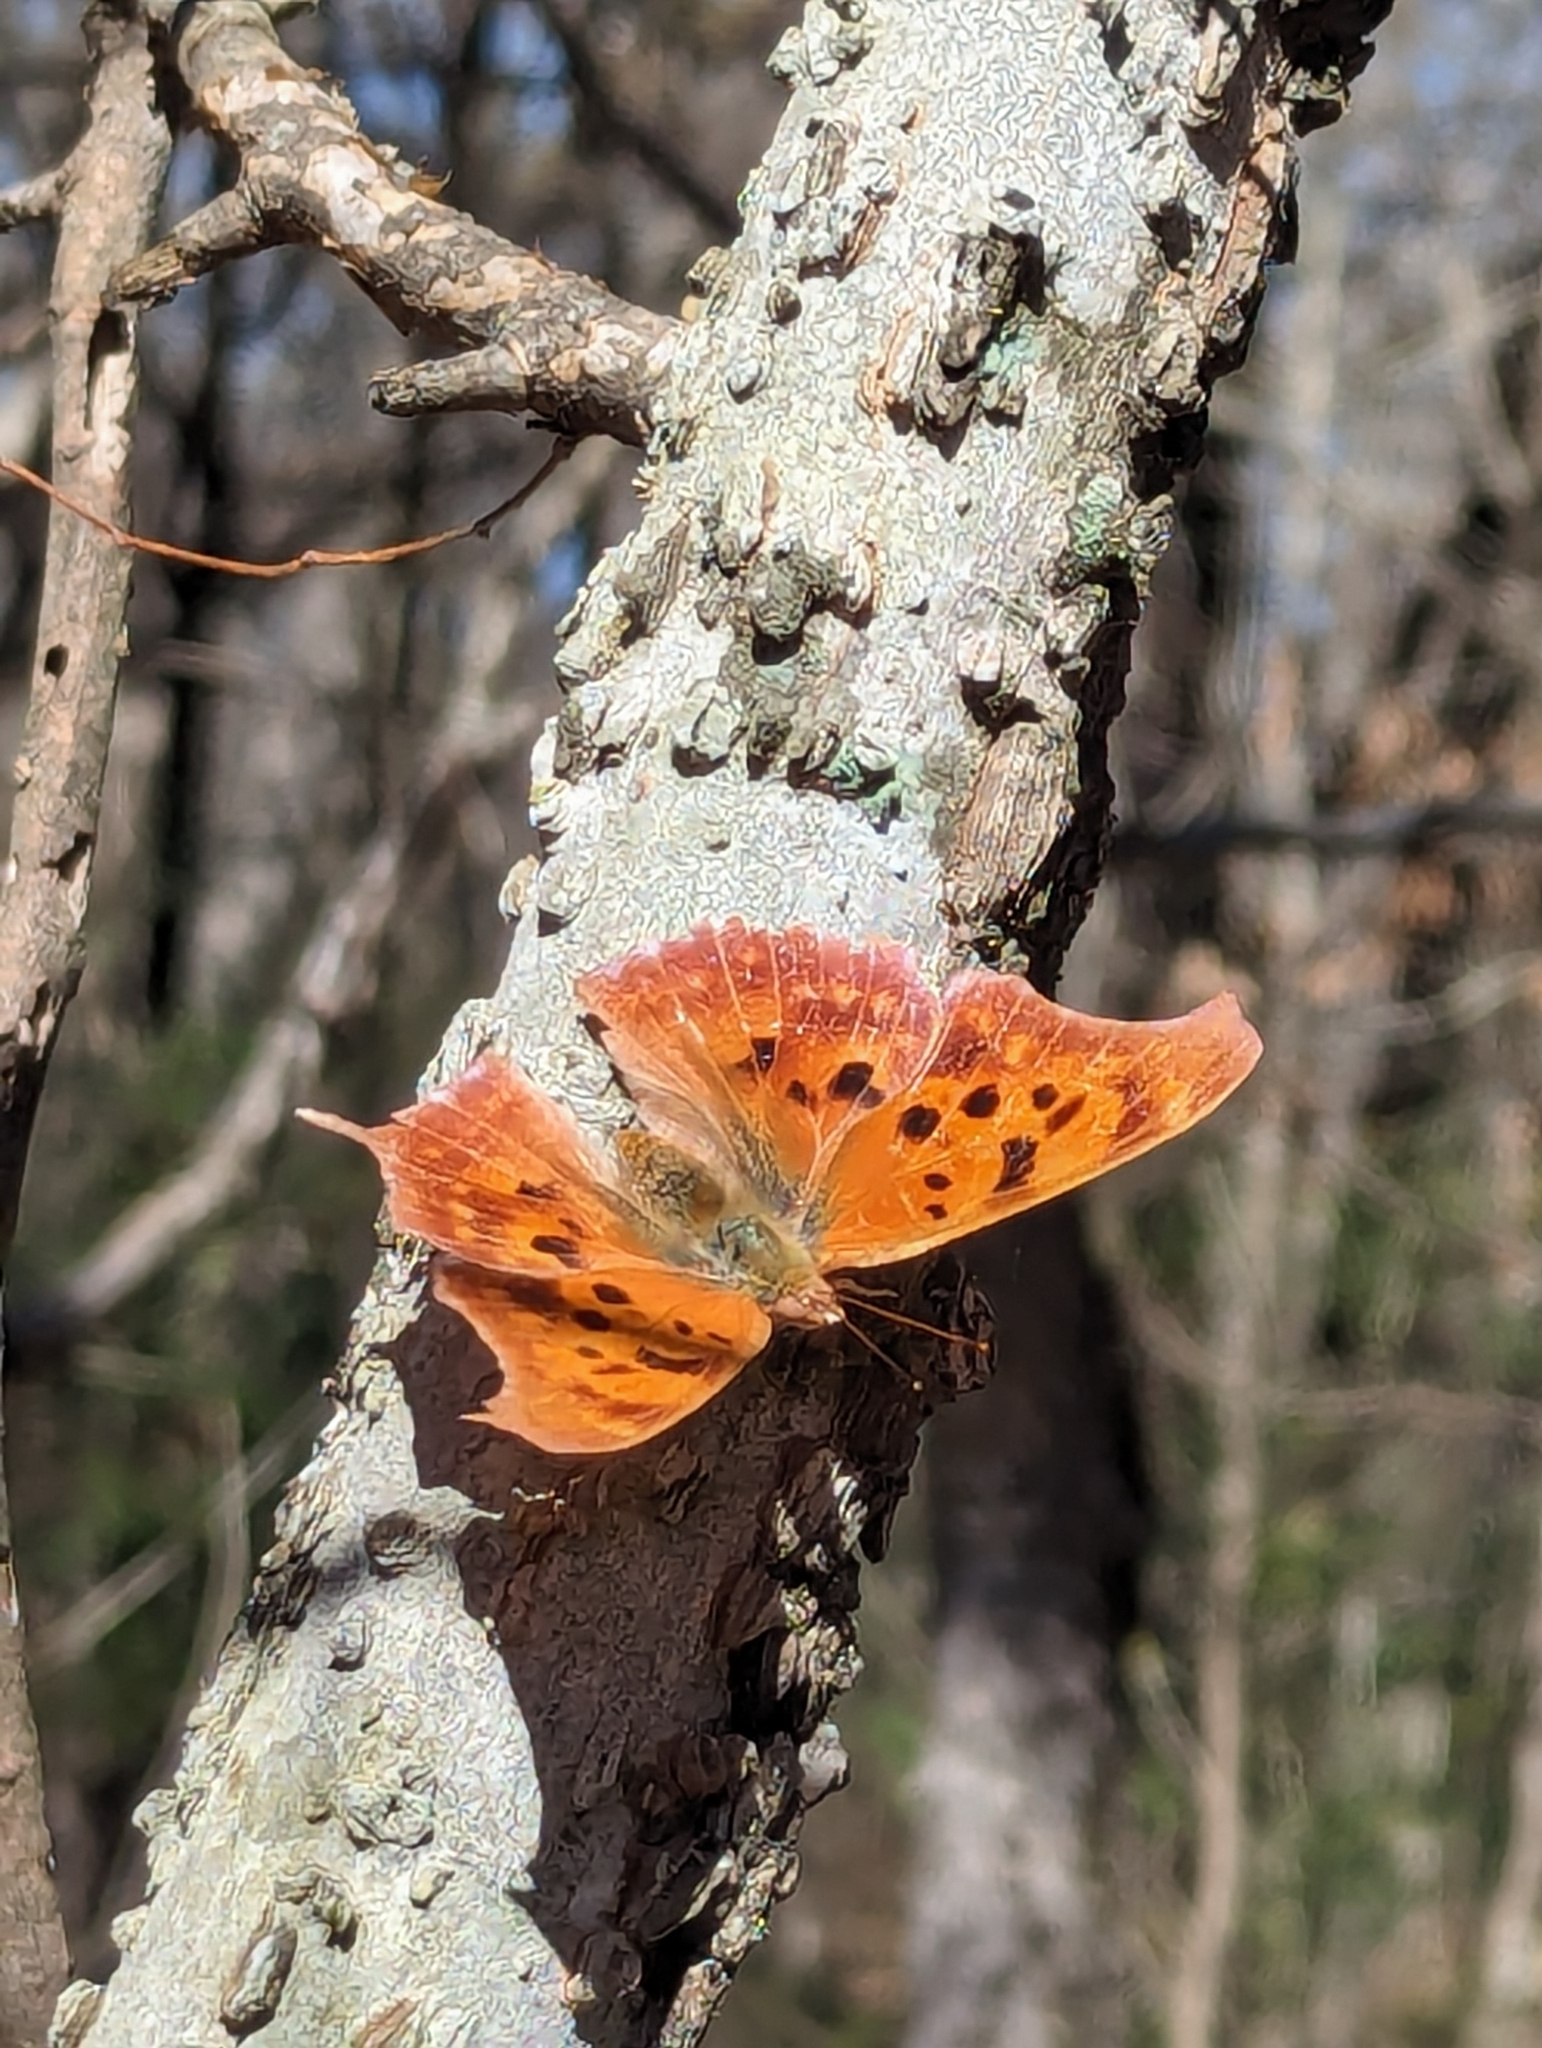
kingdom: Animalia
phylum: Arthropoda
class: Insecta
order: Lepidoptera
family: Nymphalidae
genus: Polygonia
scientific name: Polygonia interrogationis
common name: Question mark
